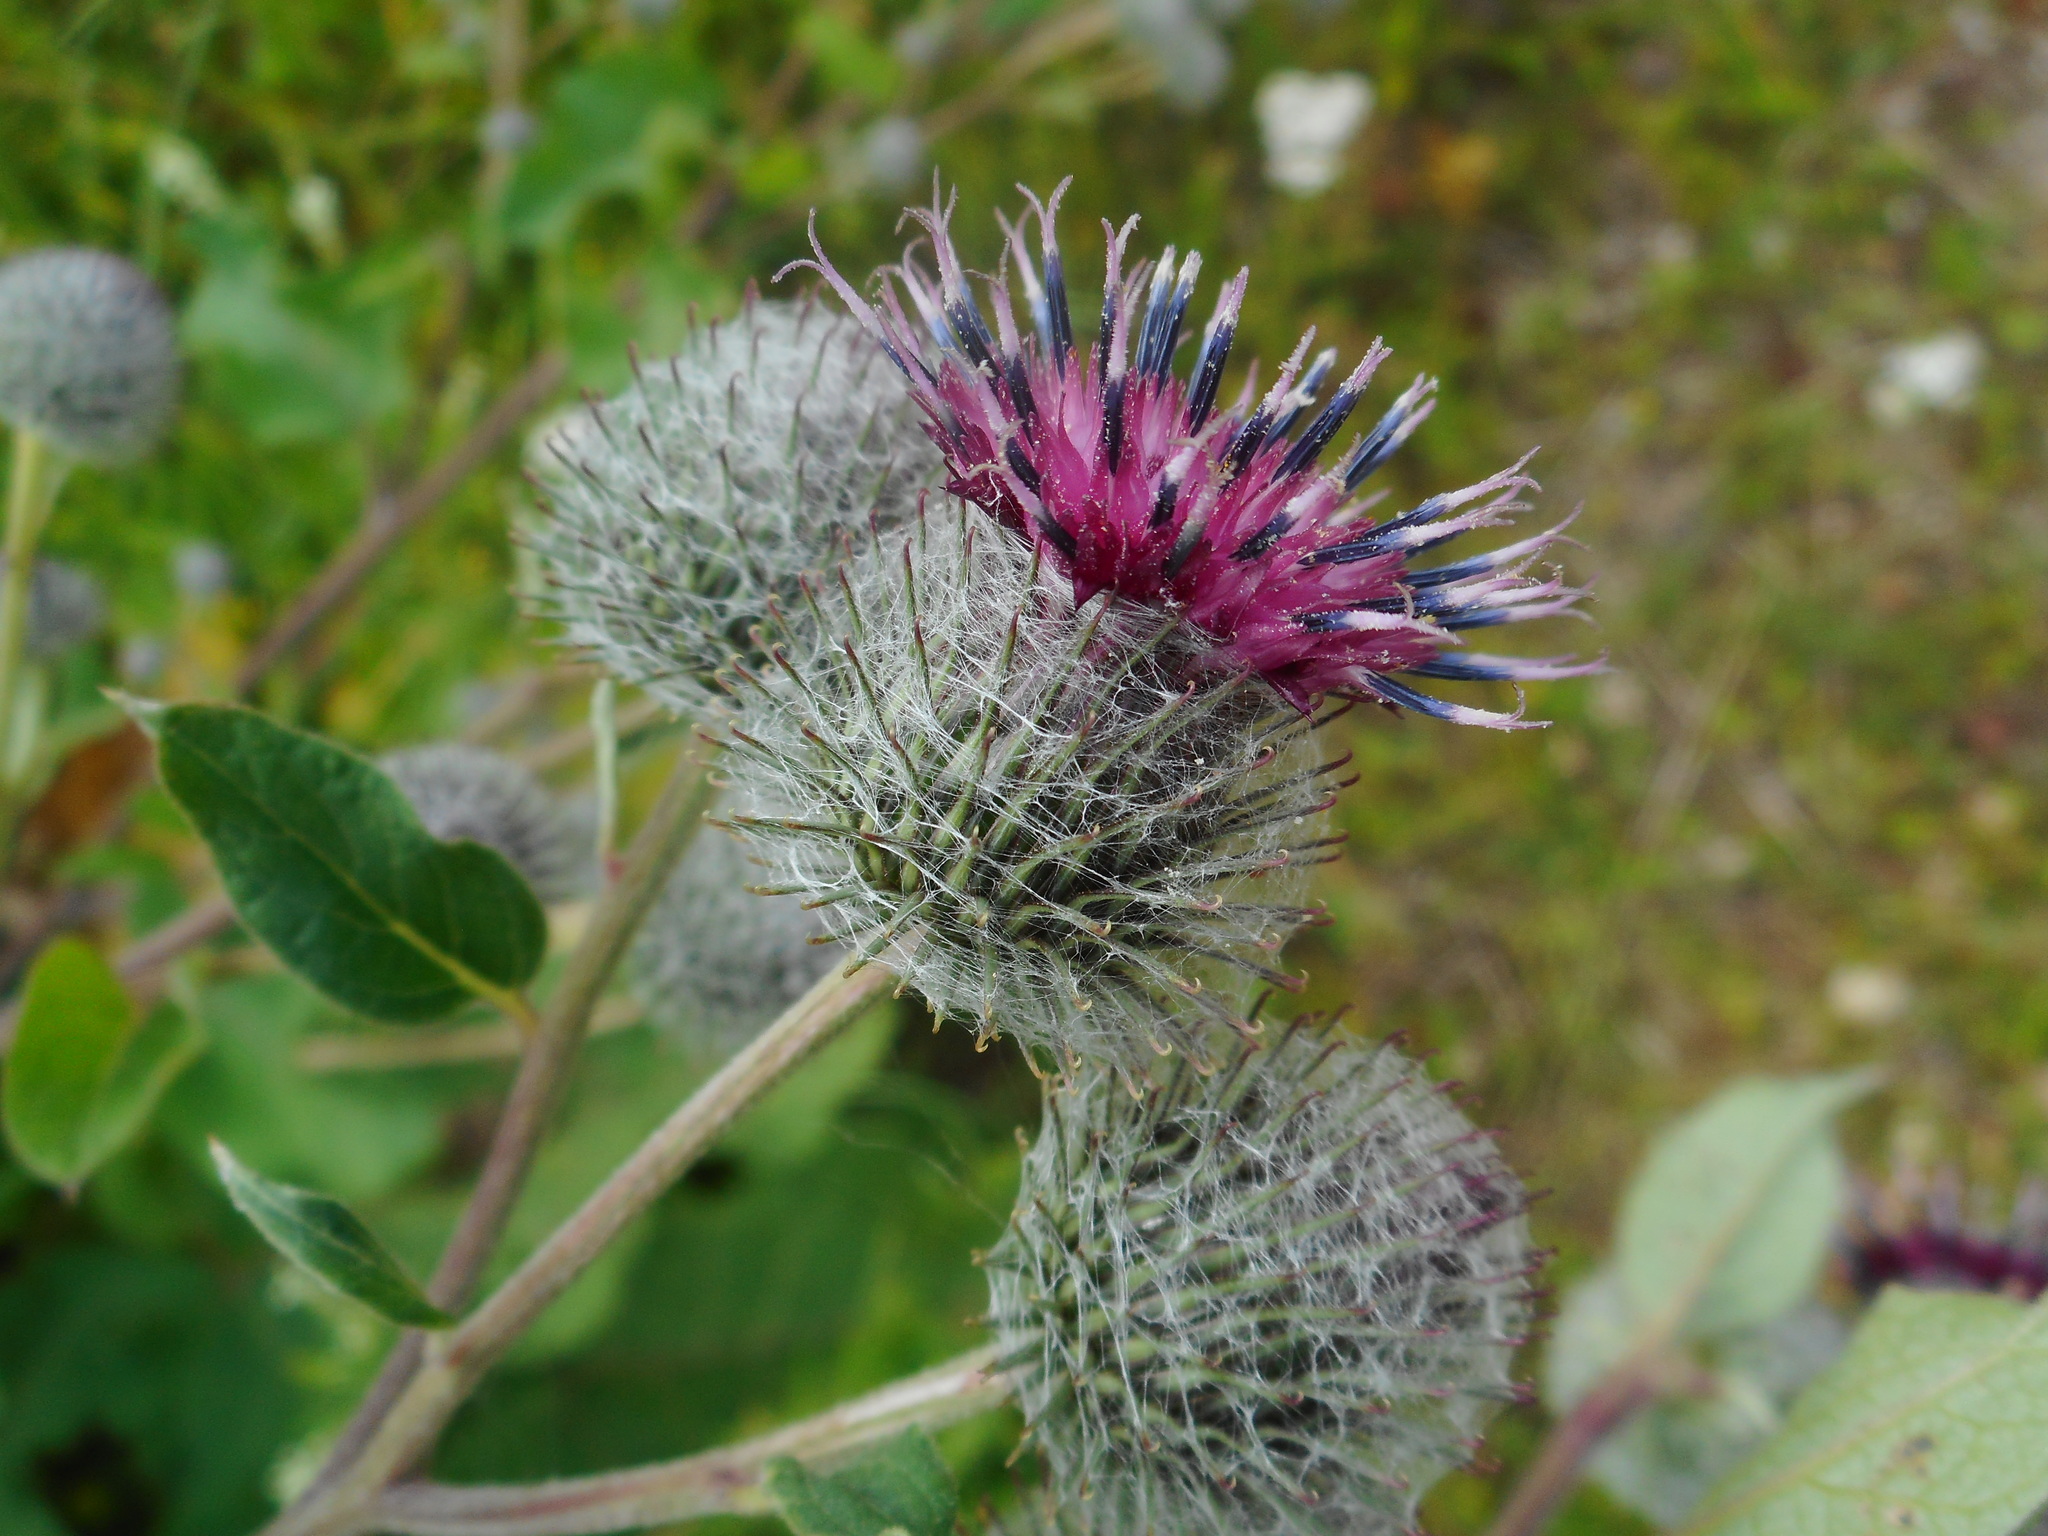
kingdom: Plantae
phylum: Tracheophyta
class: Magnoliopsida
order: Asterales
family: Asteraceae
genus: Arctium
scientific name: Arctium tomentosum
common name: Woolly burdock
